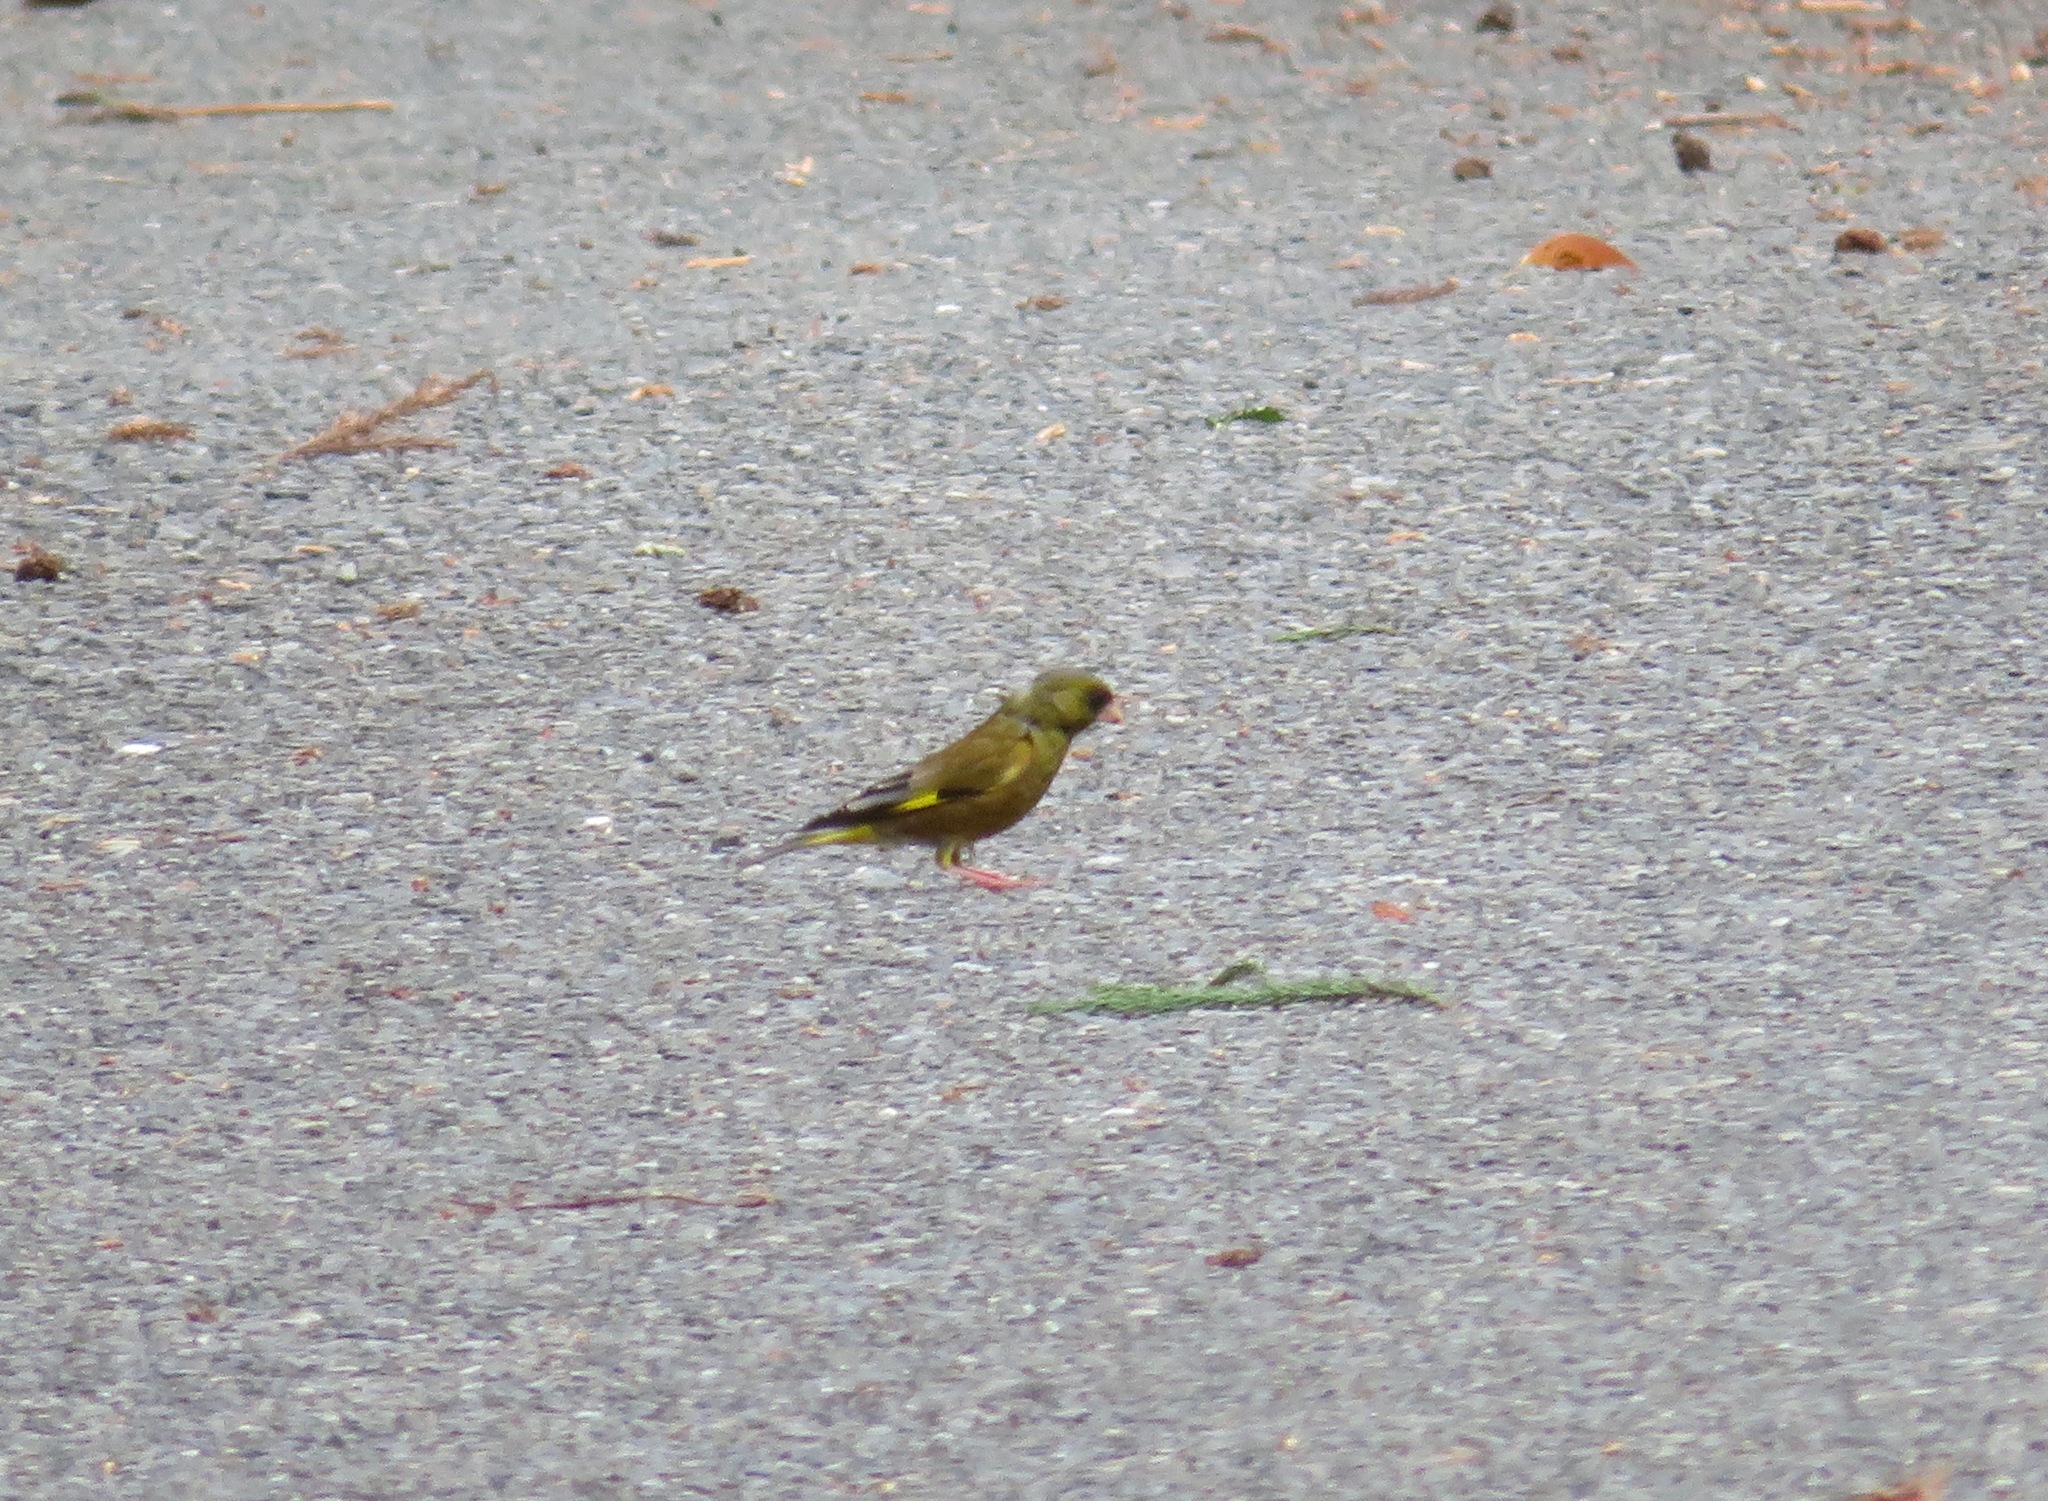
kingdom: Plantae
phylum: Tracheophyta
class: Liliopsida
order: Poales
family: Poaceae
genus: Chloris
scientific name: Chloris sinica
